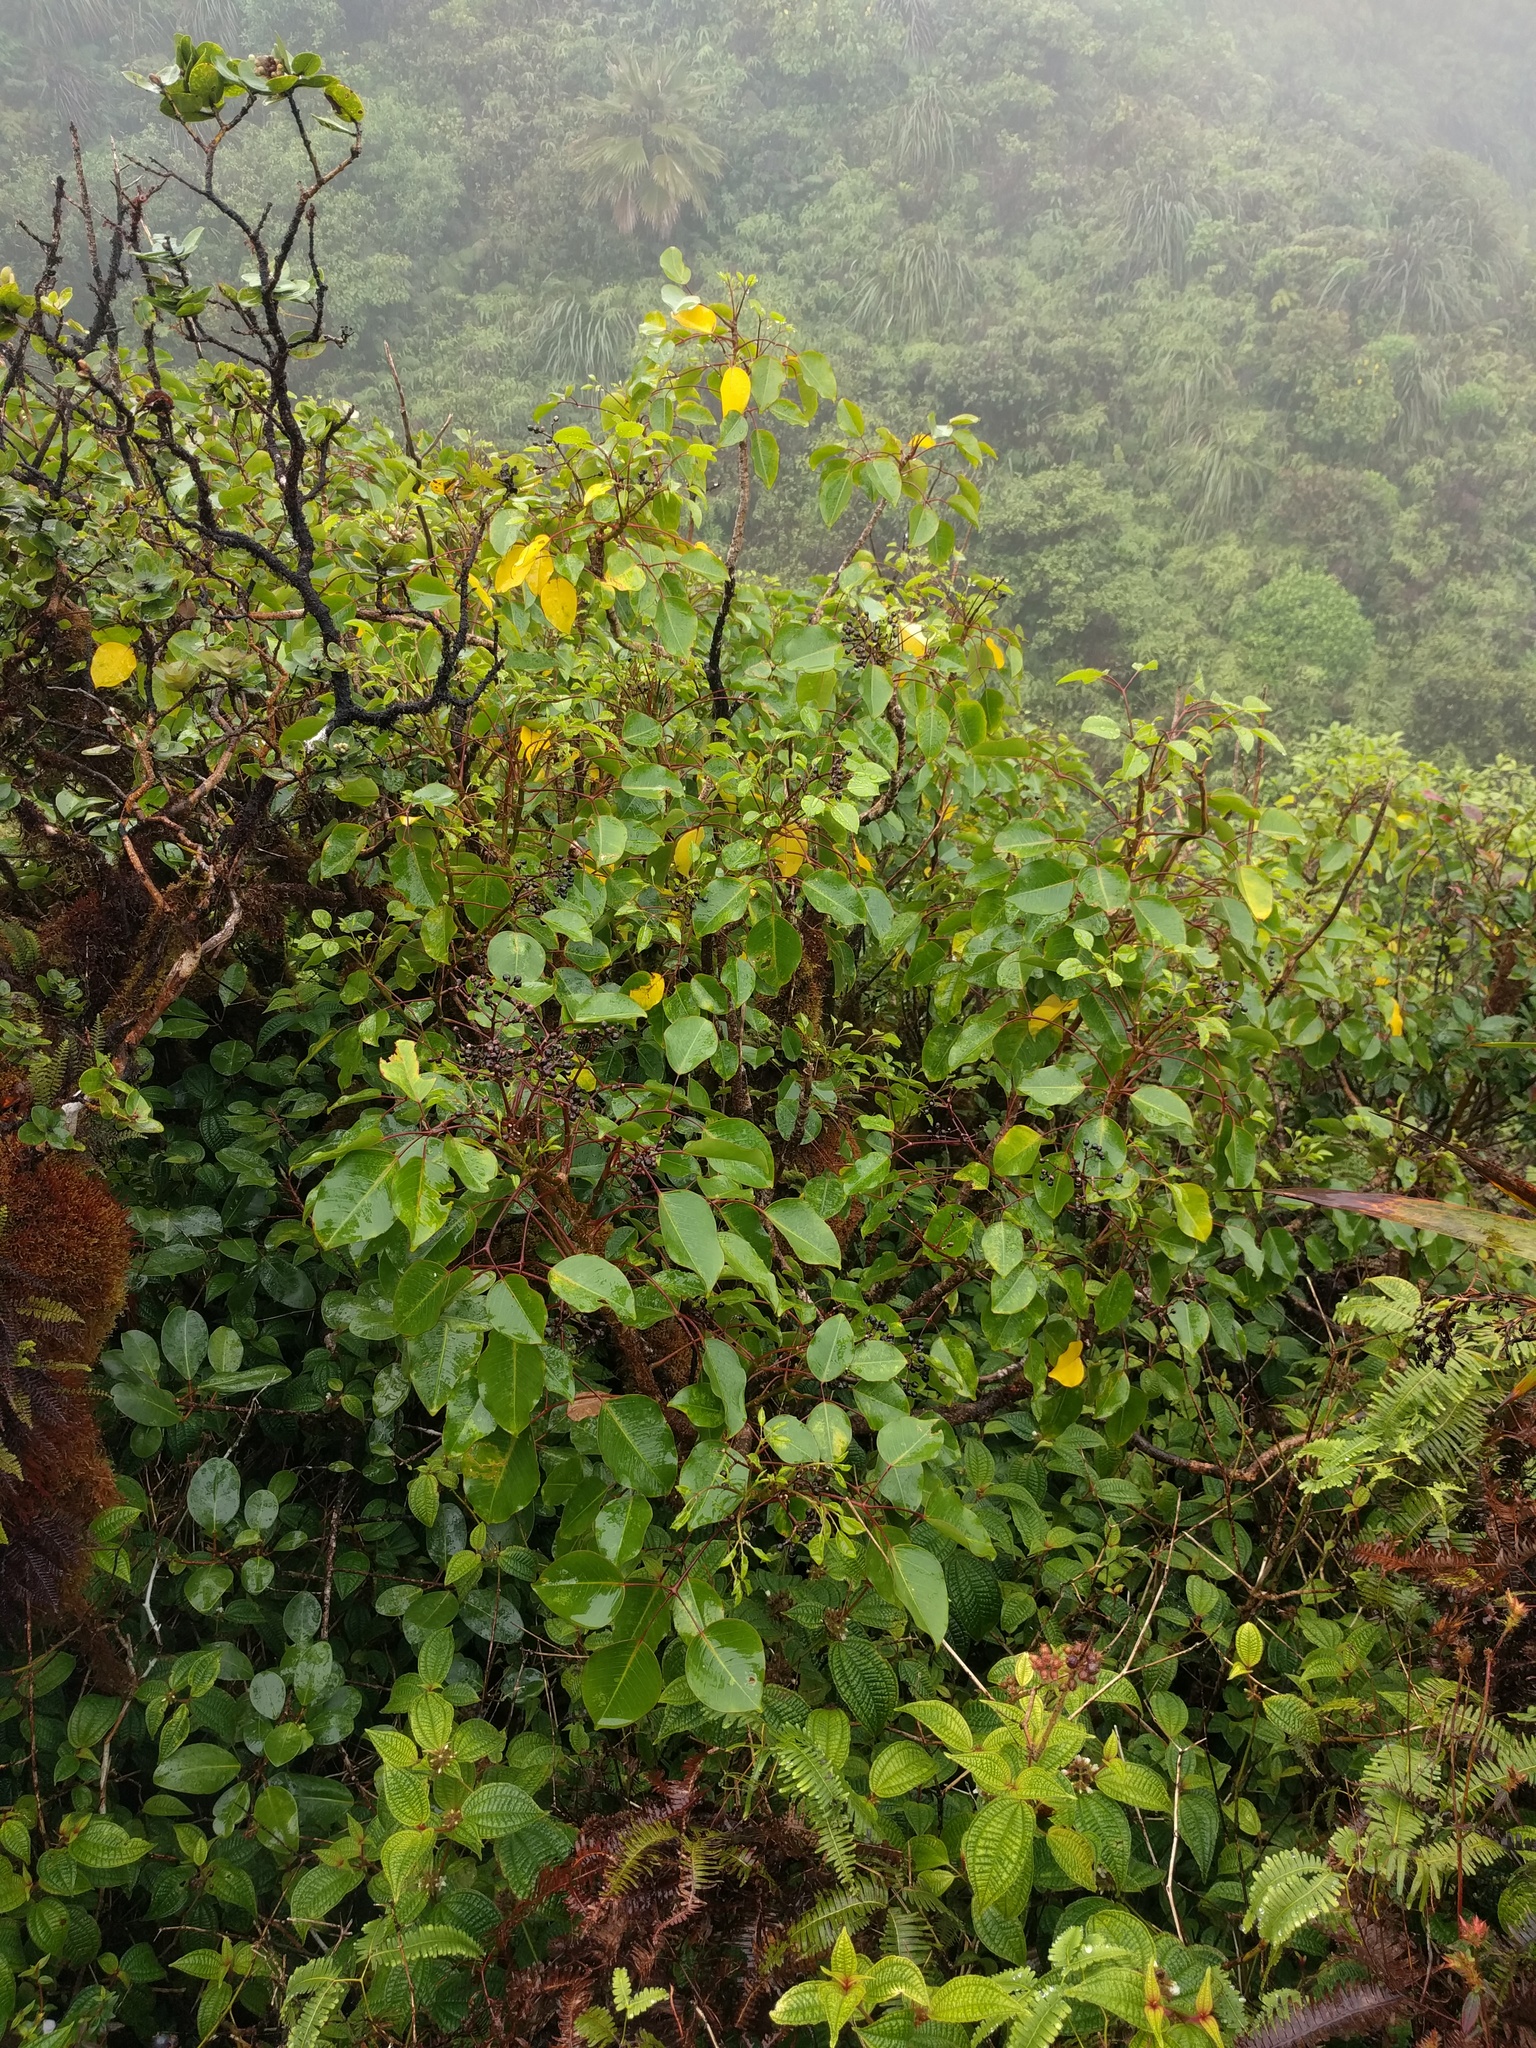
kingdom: Plantae
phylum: Tracheophyta
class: Magnoliopsida
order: Apiales
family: Araliaceae
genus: Cheirodendron
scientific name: Cheirodendron trigynum
